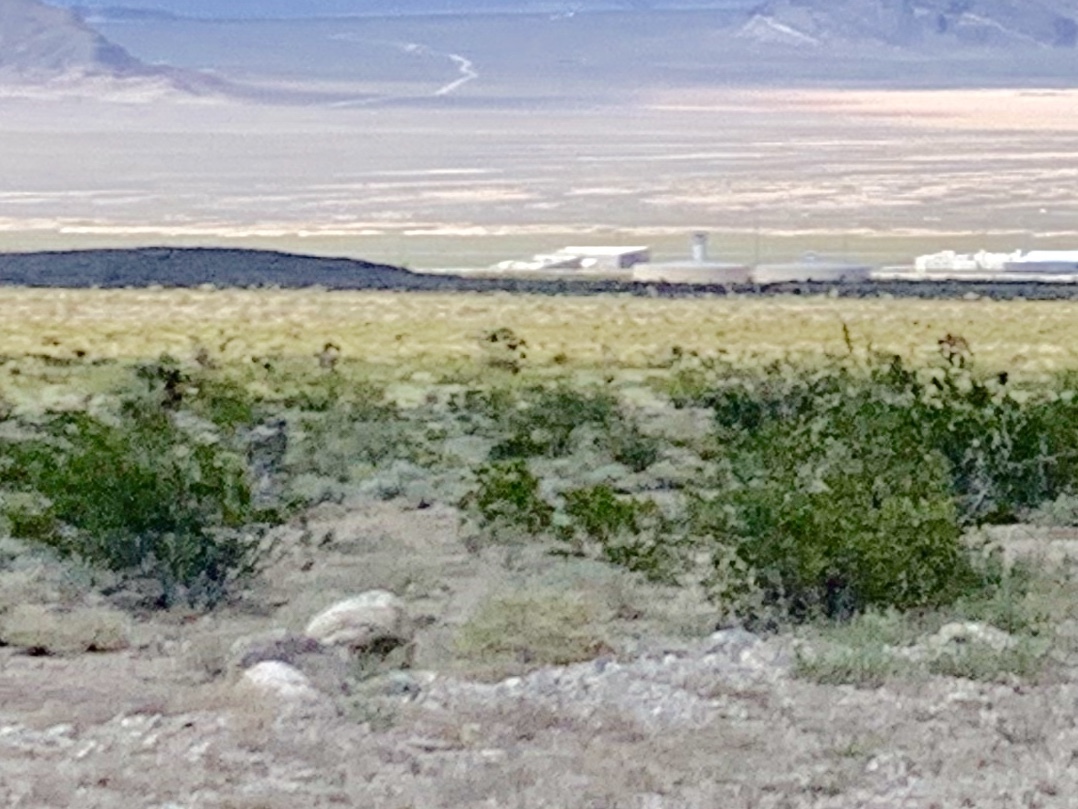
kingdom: Plantae
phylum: Tracheophyta
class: Magnoliopsida
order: Zygophyllales
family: Zygophyllaceae
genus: Larrea
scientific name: Larrea tridentata
